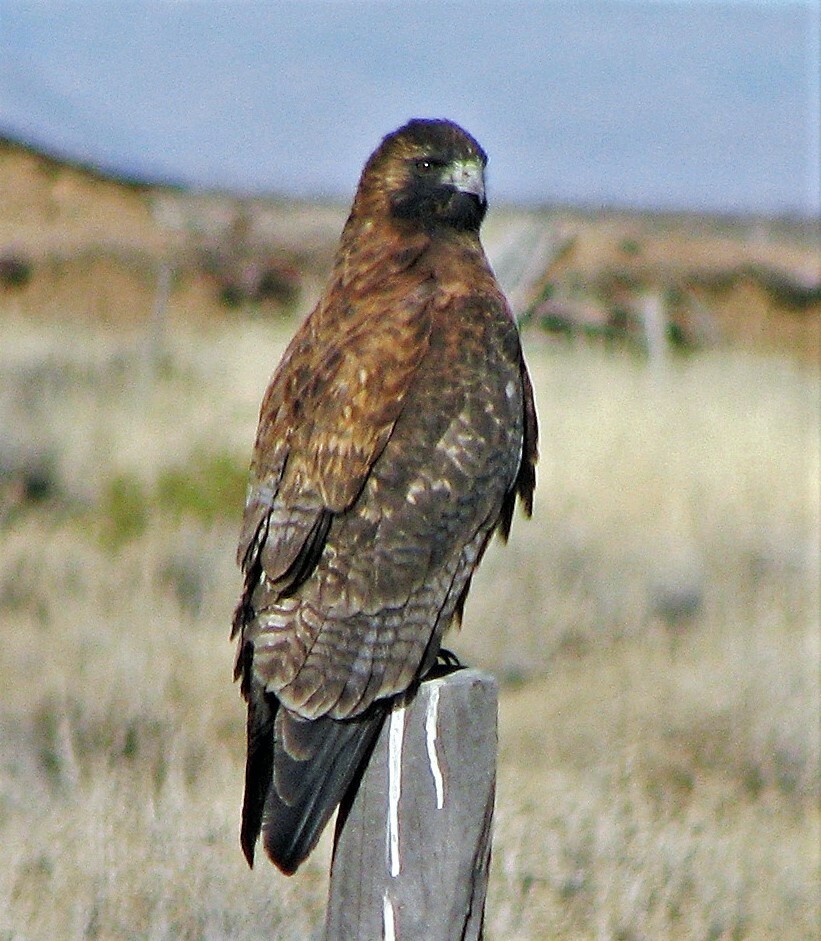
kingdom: Animalia
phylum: Chordata
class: Aves
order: Accipitriformes
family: Accipitridae
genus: Buteo
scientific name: Buteo polyosoma
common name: Variable hawk
